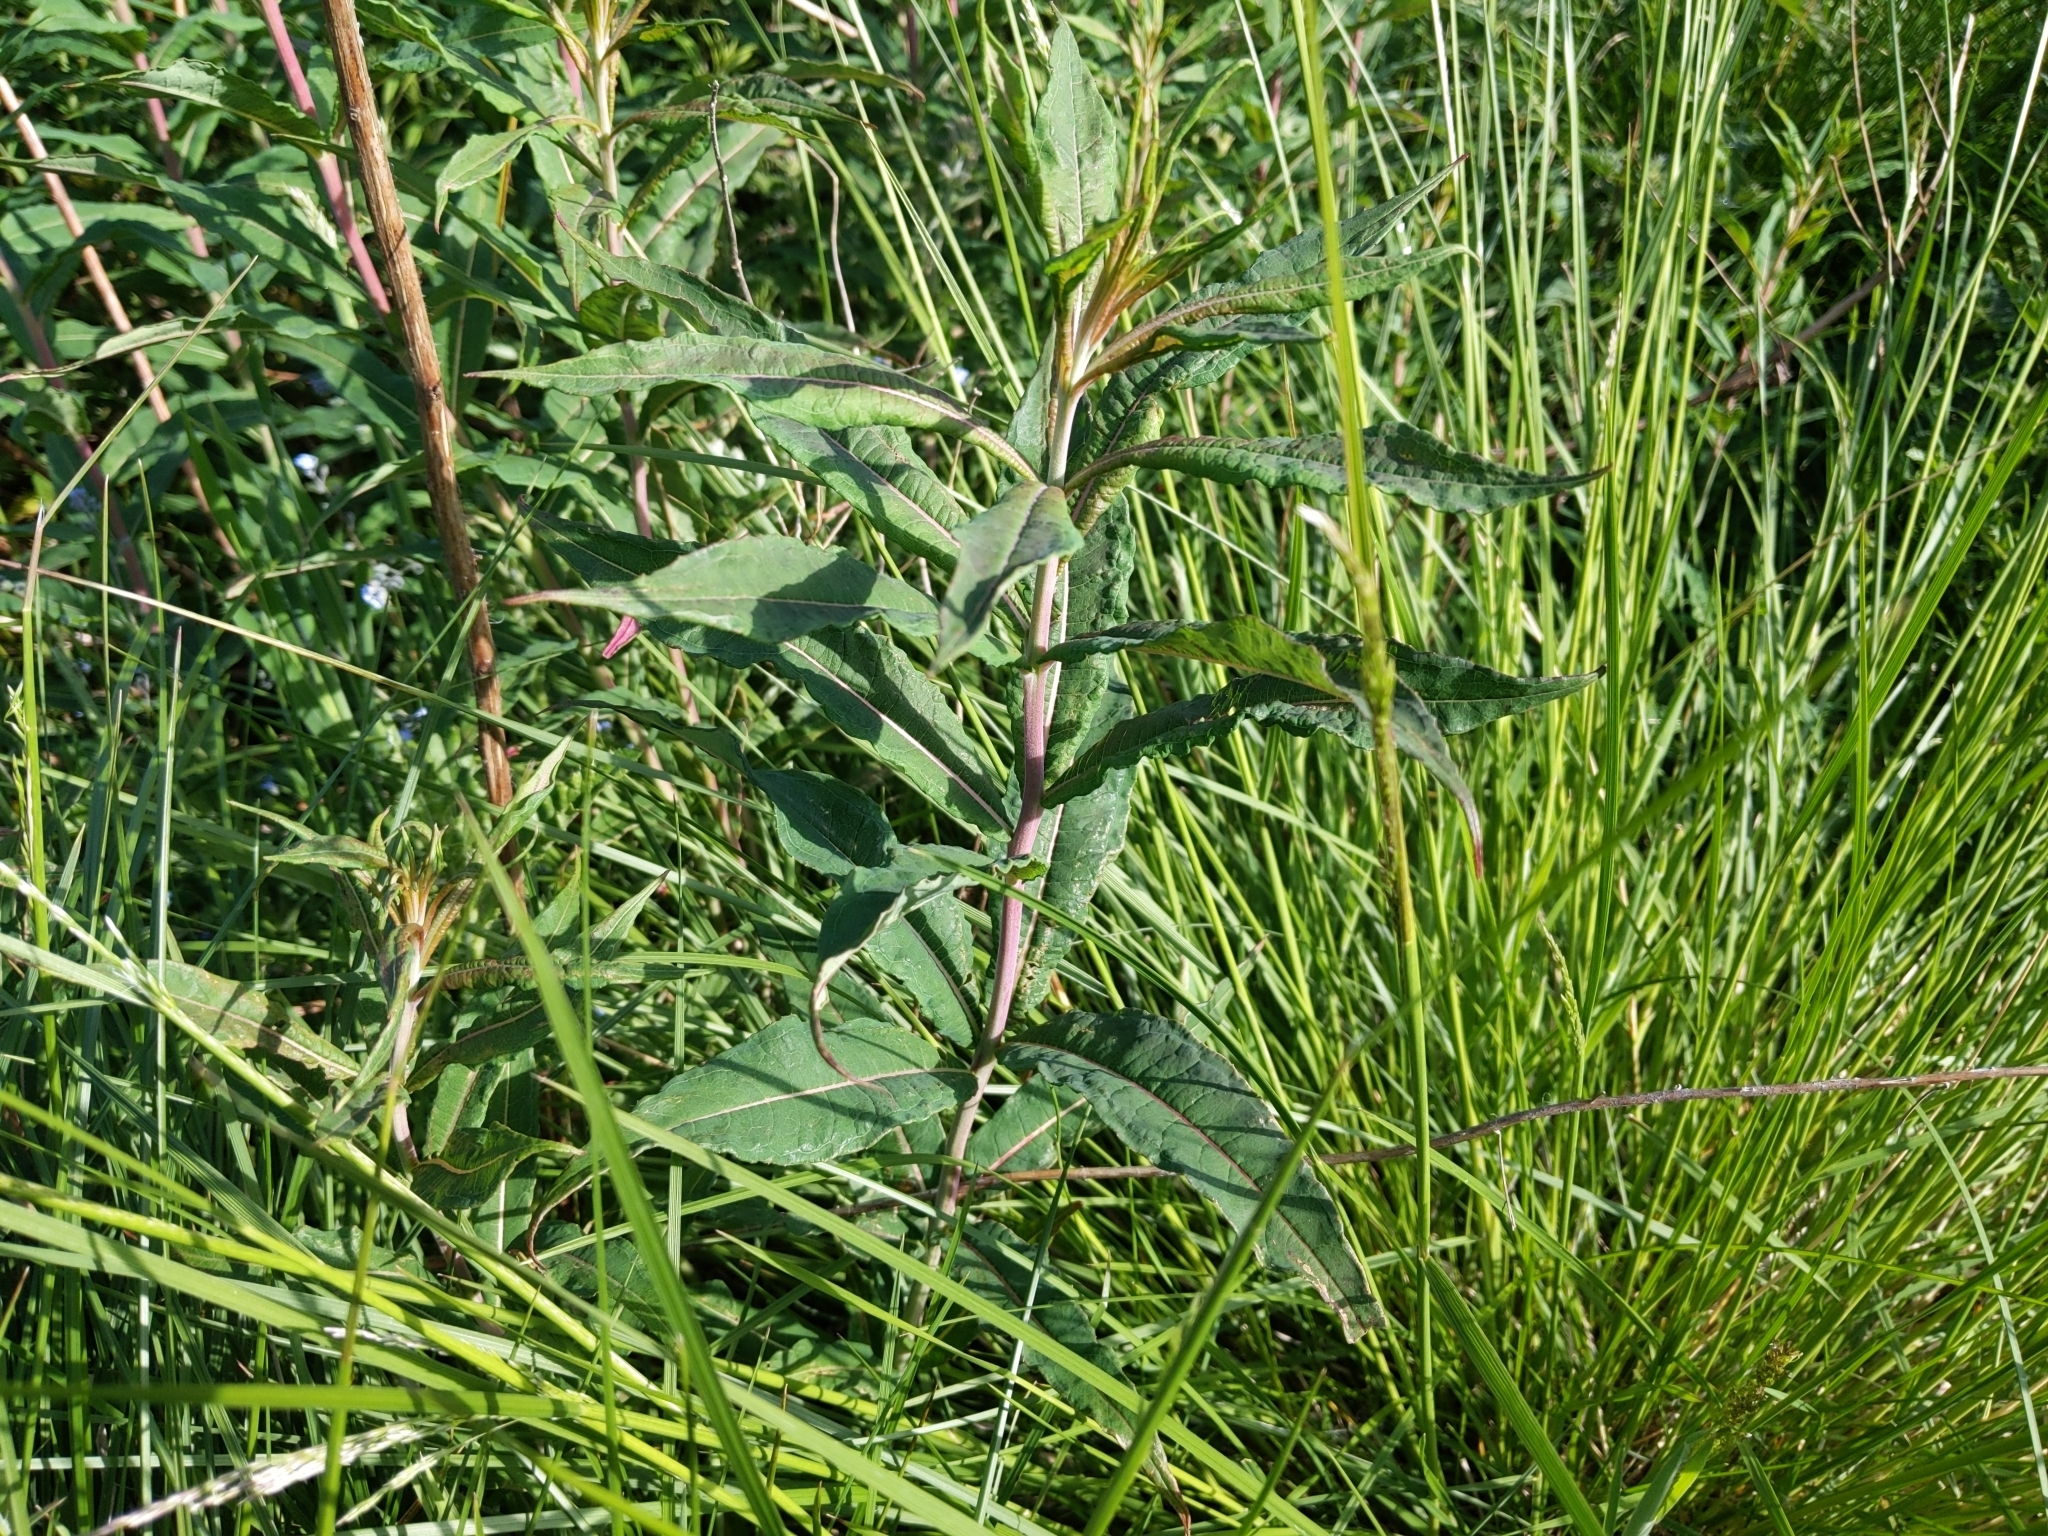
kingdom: Plantae
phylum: Tracheophyta
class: Magnoliopsida
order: Myrtales
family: Onagraceae
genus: Chamaenerion
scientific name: Chamaenerion angustifolium
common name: Fireweed
